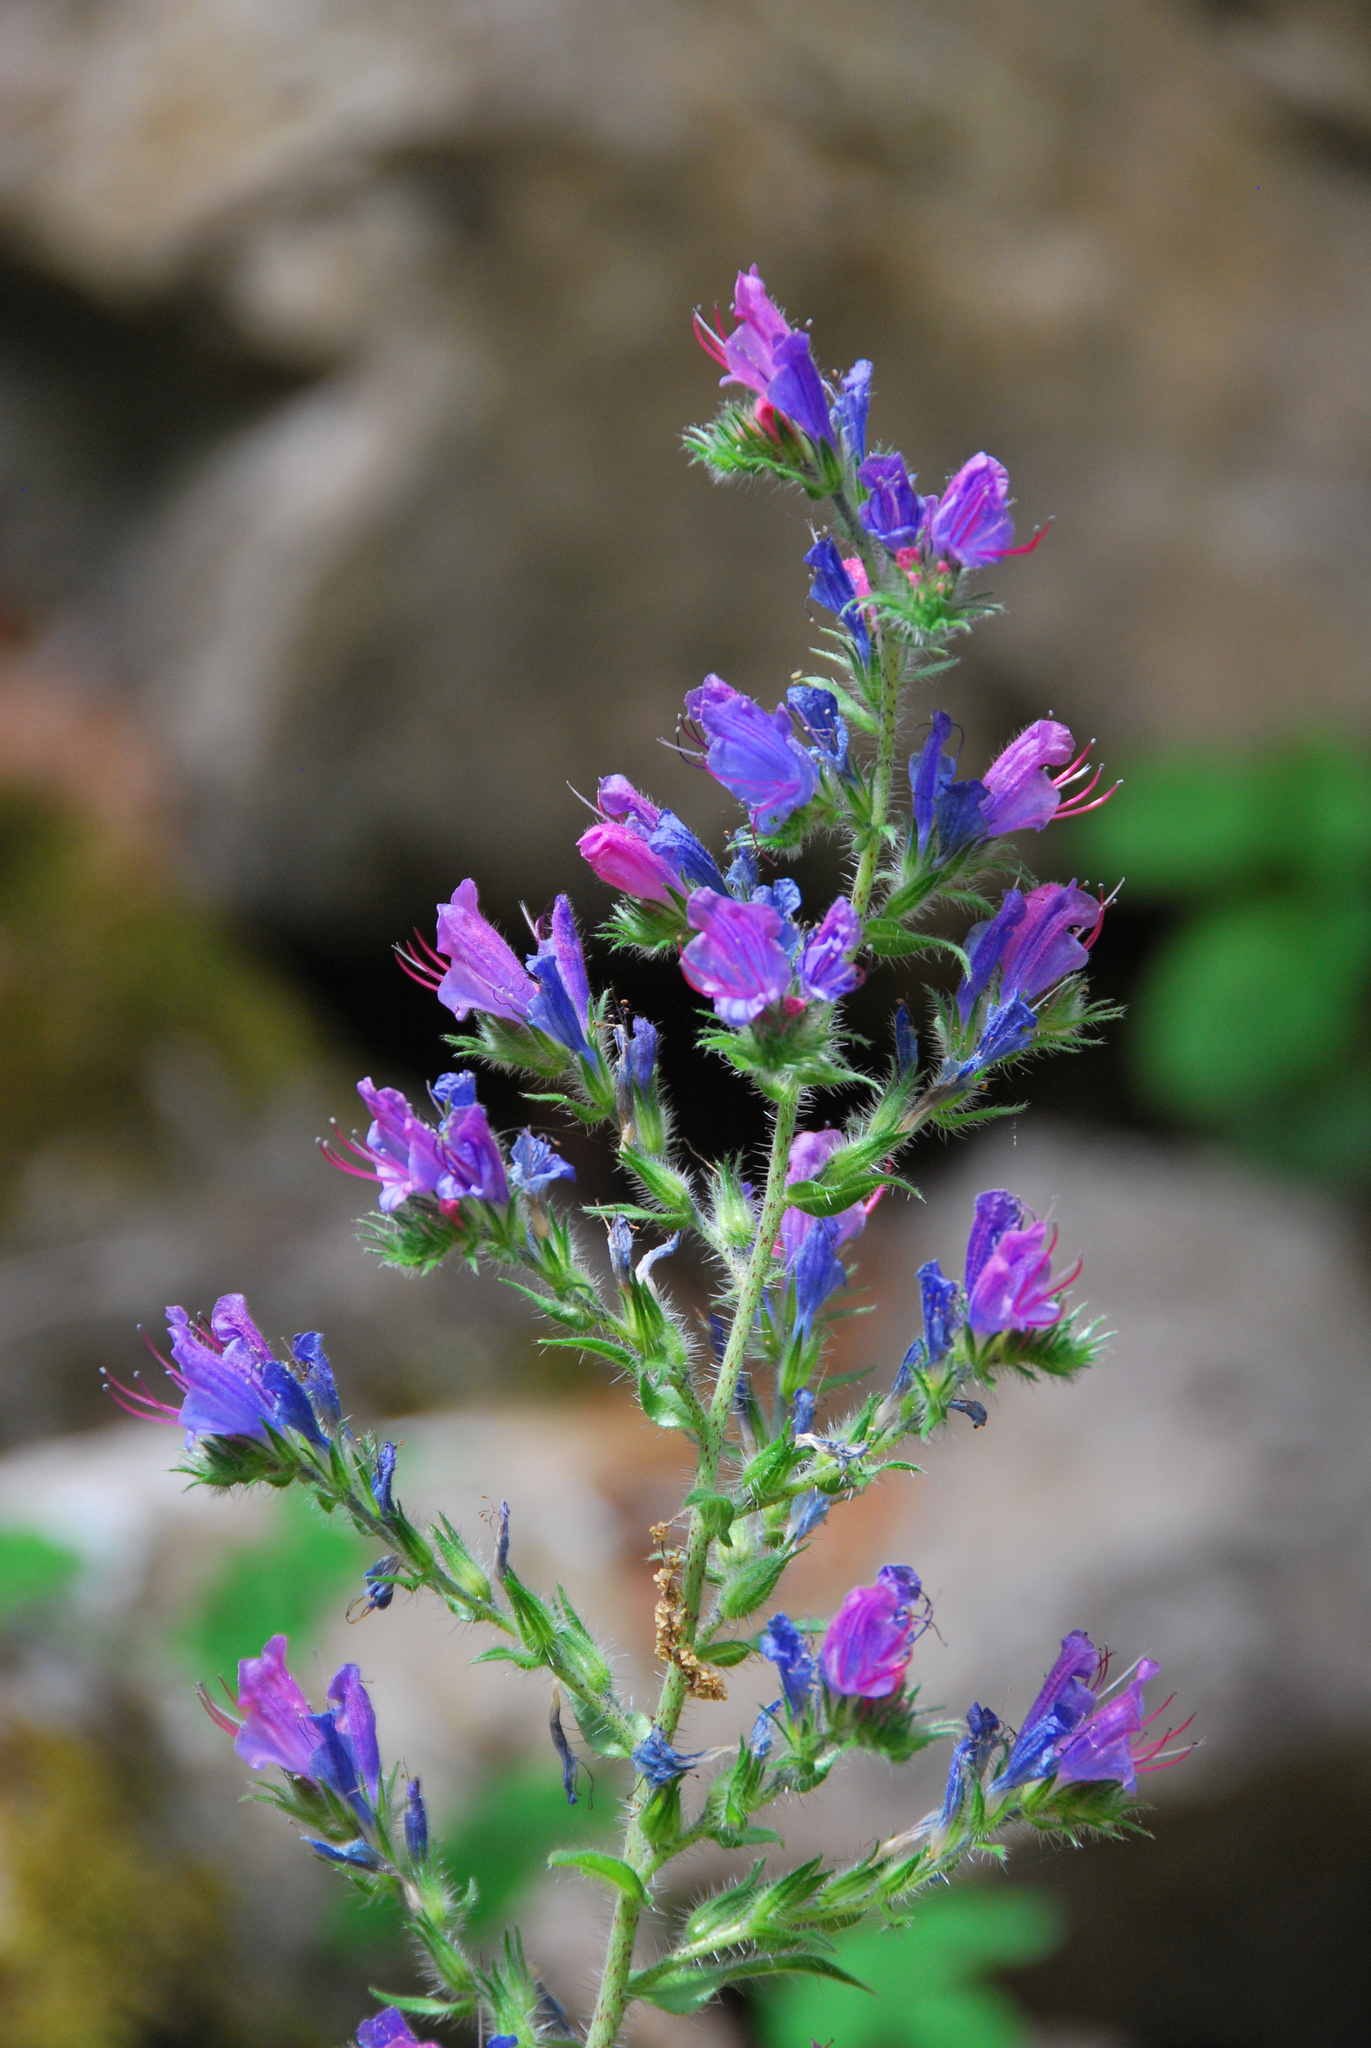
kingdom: Plantae
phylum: Tracheophyta
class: Magnoliopsida
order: Boraginales
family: Boraginaceae
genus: Echium
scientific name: Echium vulgare
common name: Common viper's bugloss
